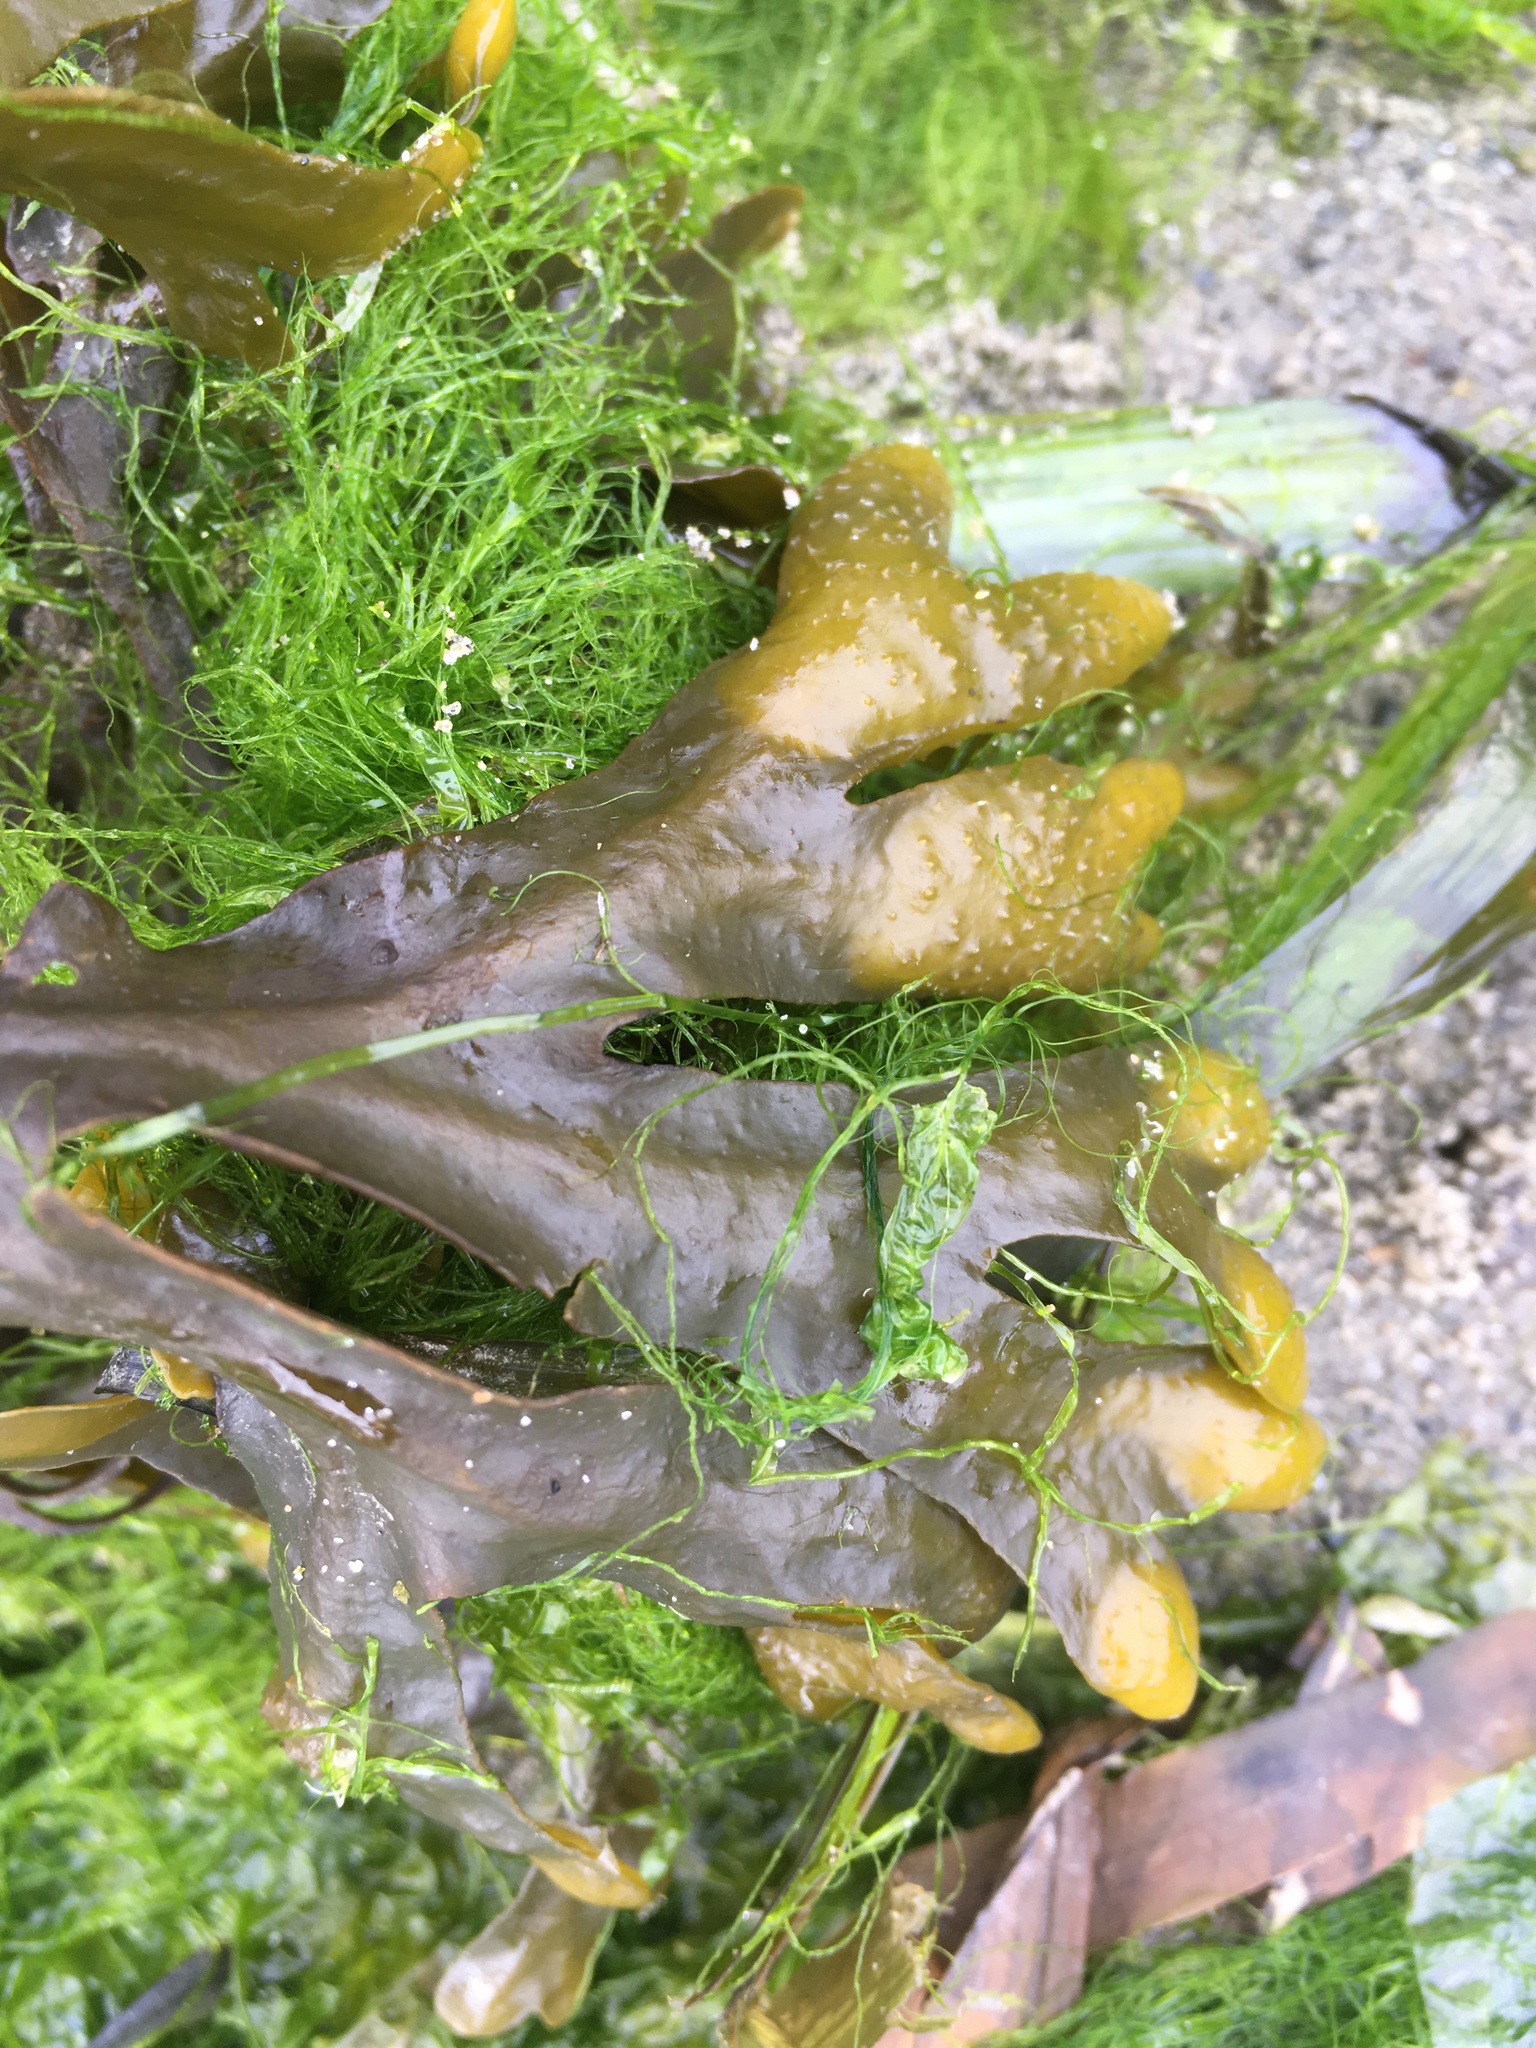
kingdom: Chromista
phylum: Ochrophyta
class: Phaeophyceae
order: Fucales
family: Fucaceae
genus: Fucus
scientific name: Fucus distichus
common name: Rockweed
